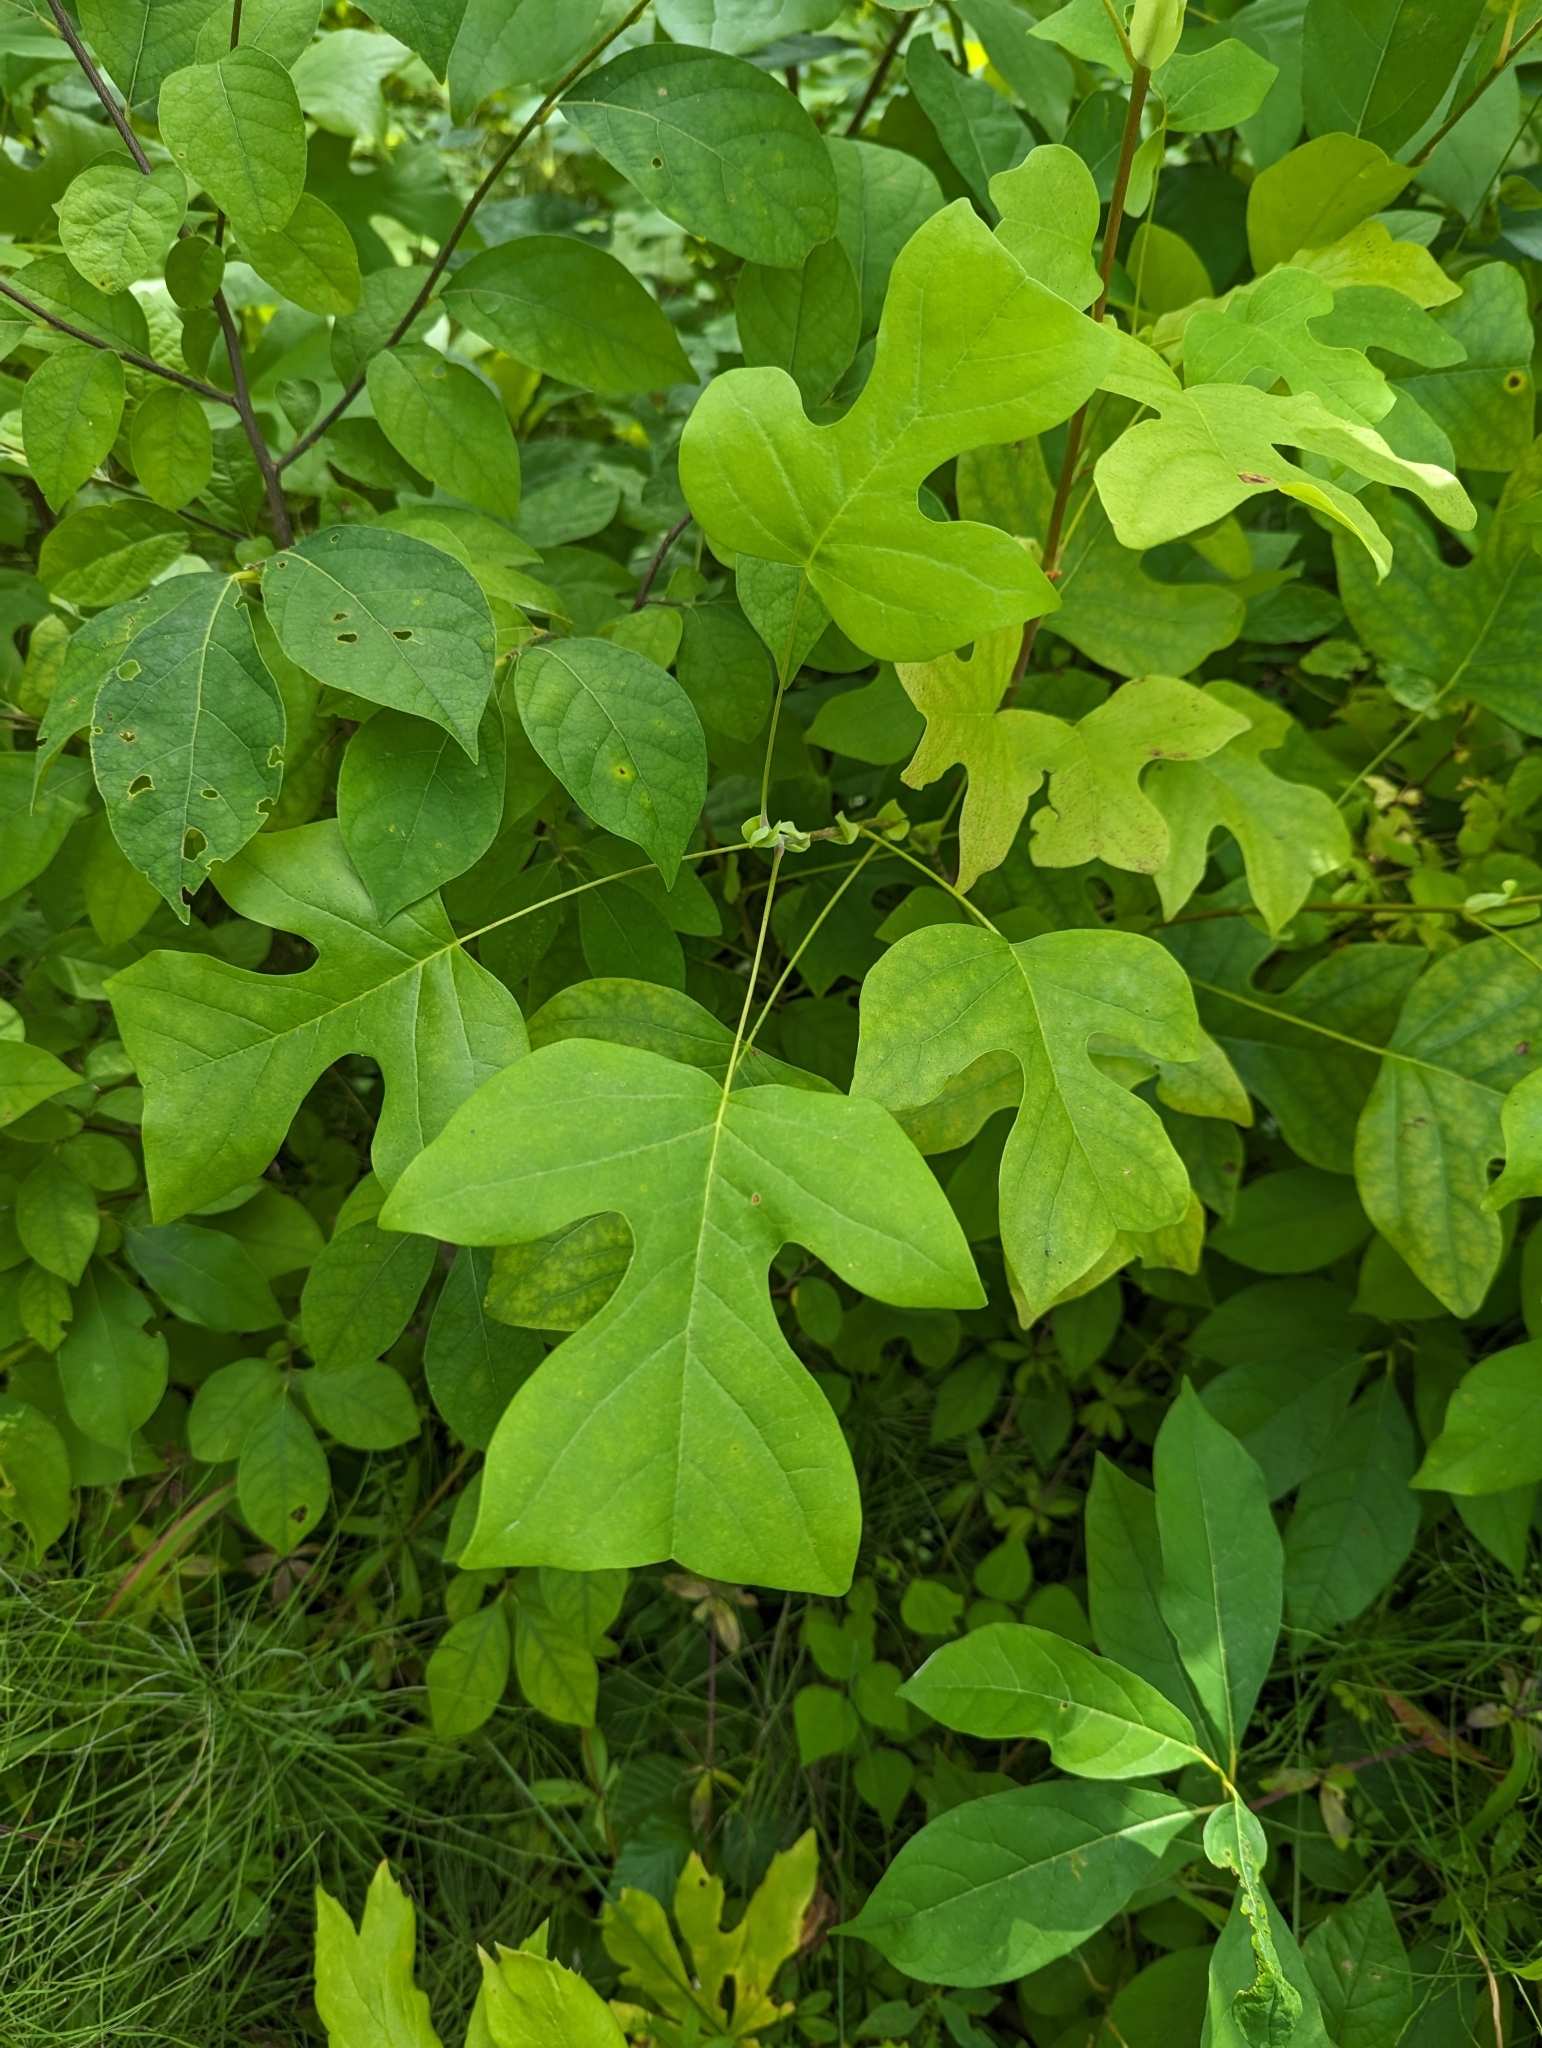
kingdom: Plantae
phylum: Tracheophyta
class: Magnoliopsida
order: Magnoliales
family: Magnoliaceae
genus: Liriodendron
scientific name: Liriodendron tulipifera
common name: Tulip tree
